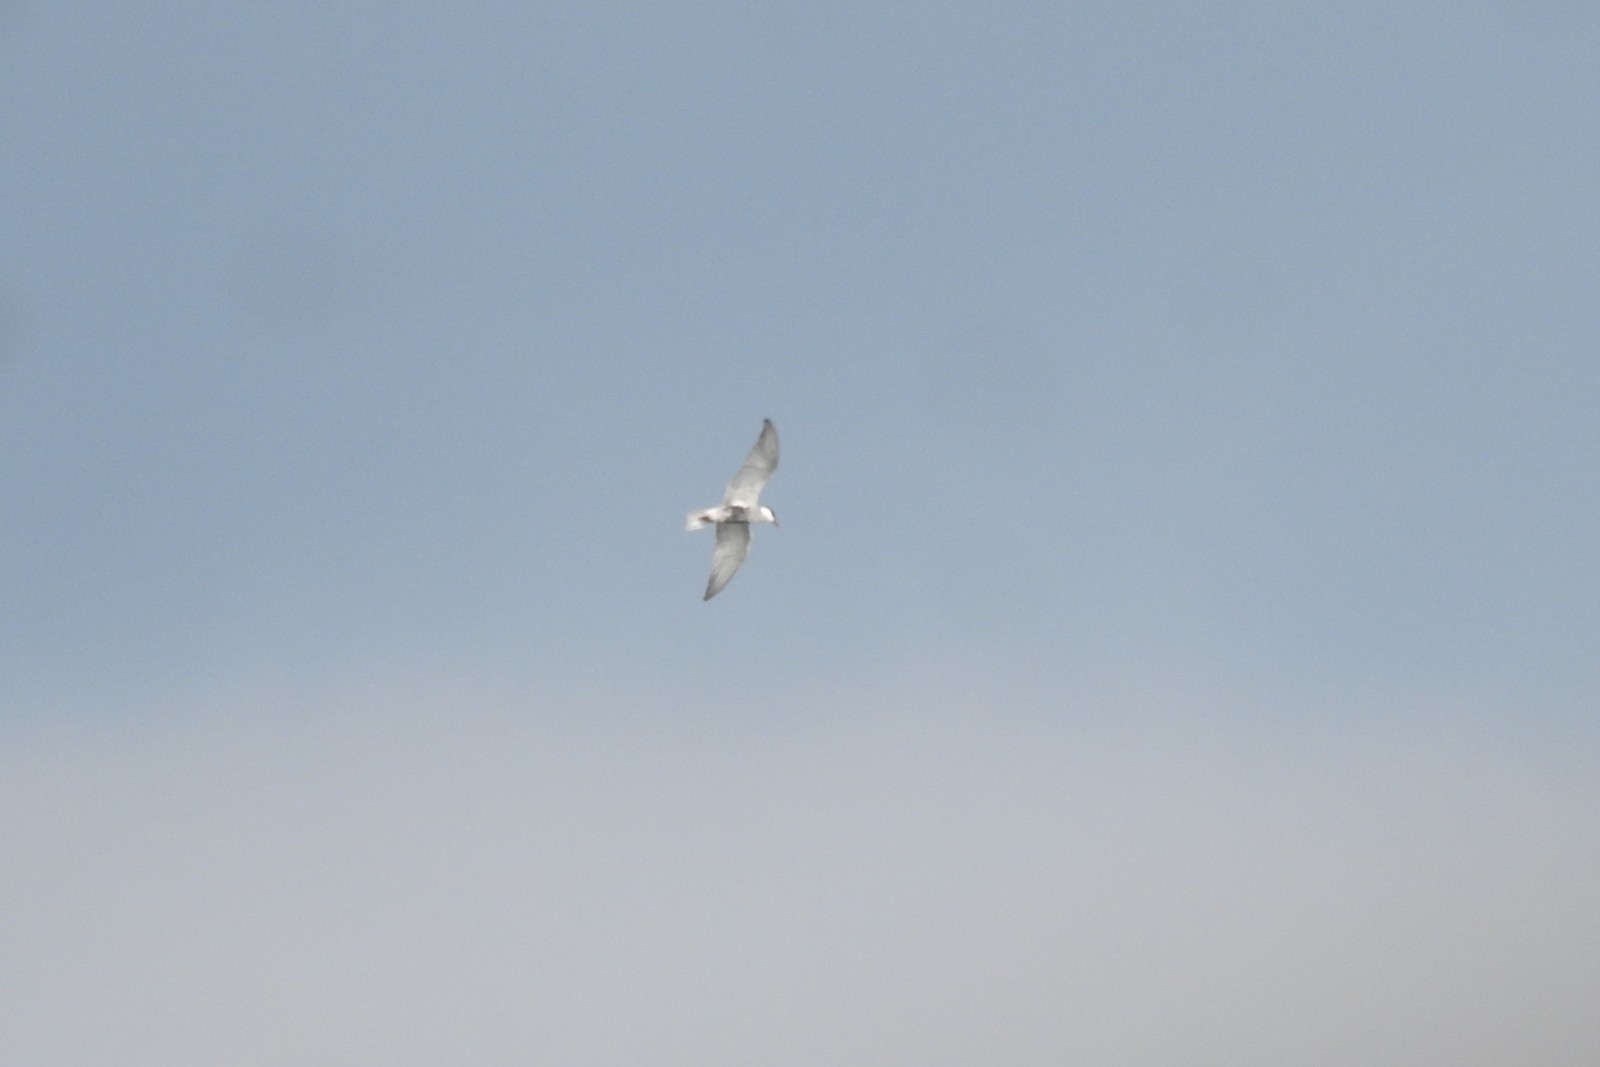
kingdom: Animalia
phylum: Chordata
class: Aves
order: Charadriiformes
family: Laridae
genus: Chlidonias
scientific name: Chlidonias hybrida
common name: Whiskered tern
